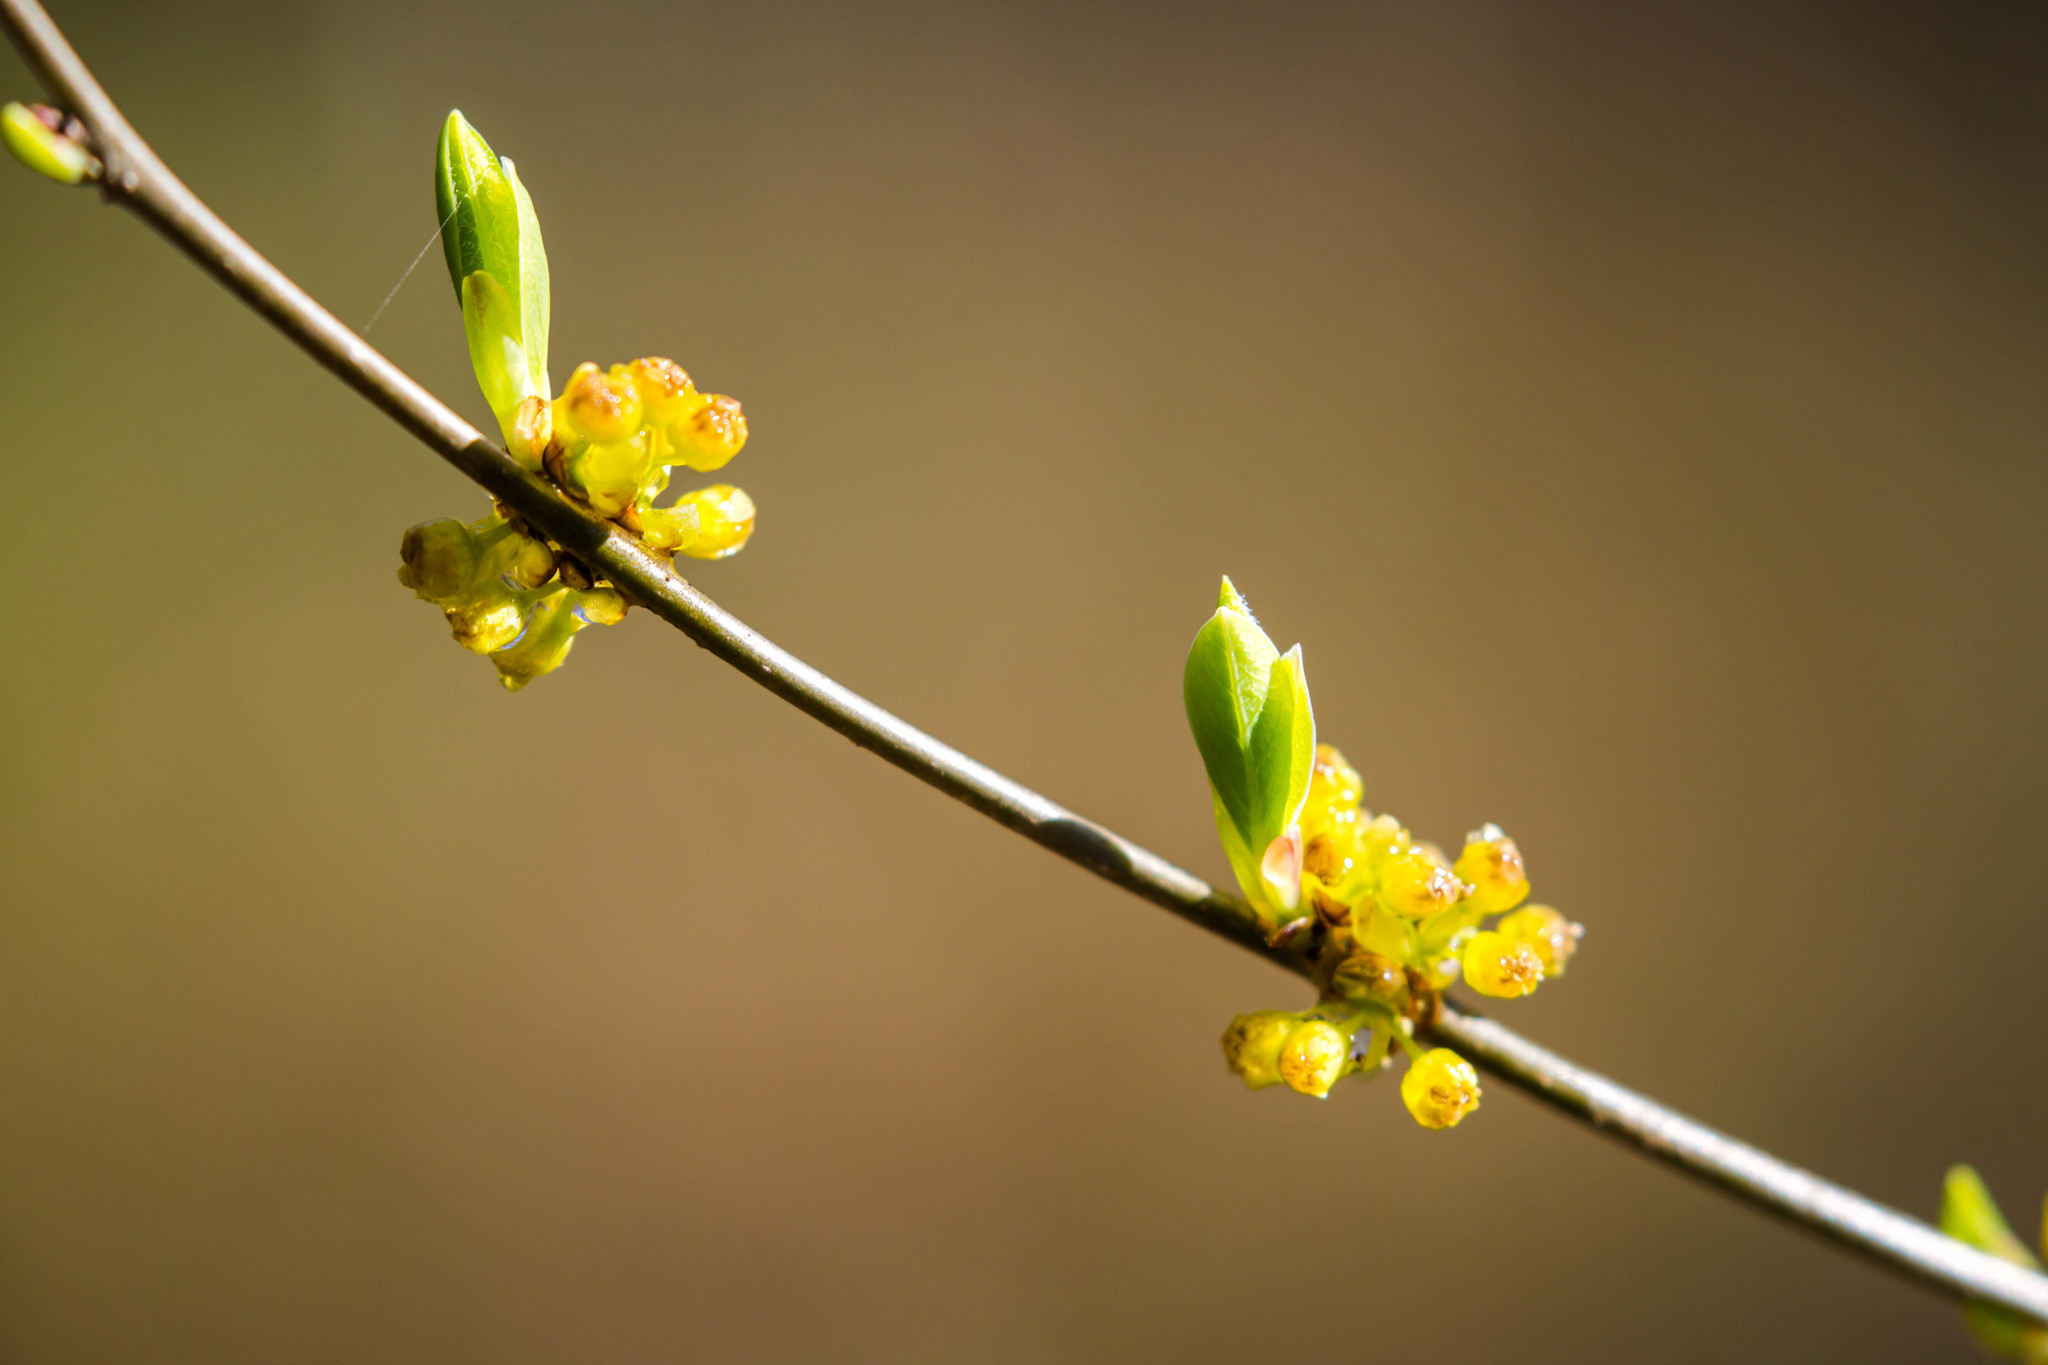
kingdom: Plantae
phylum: Tracheophyta
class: Magnoliopsida
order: Laurales
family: Lauraceae
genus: Lindera
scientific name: Lindera benzoin
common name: Spicebush
